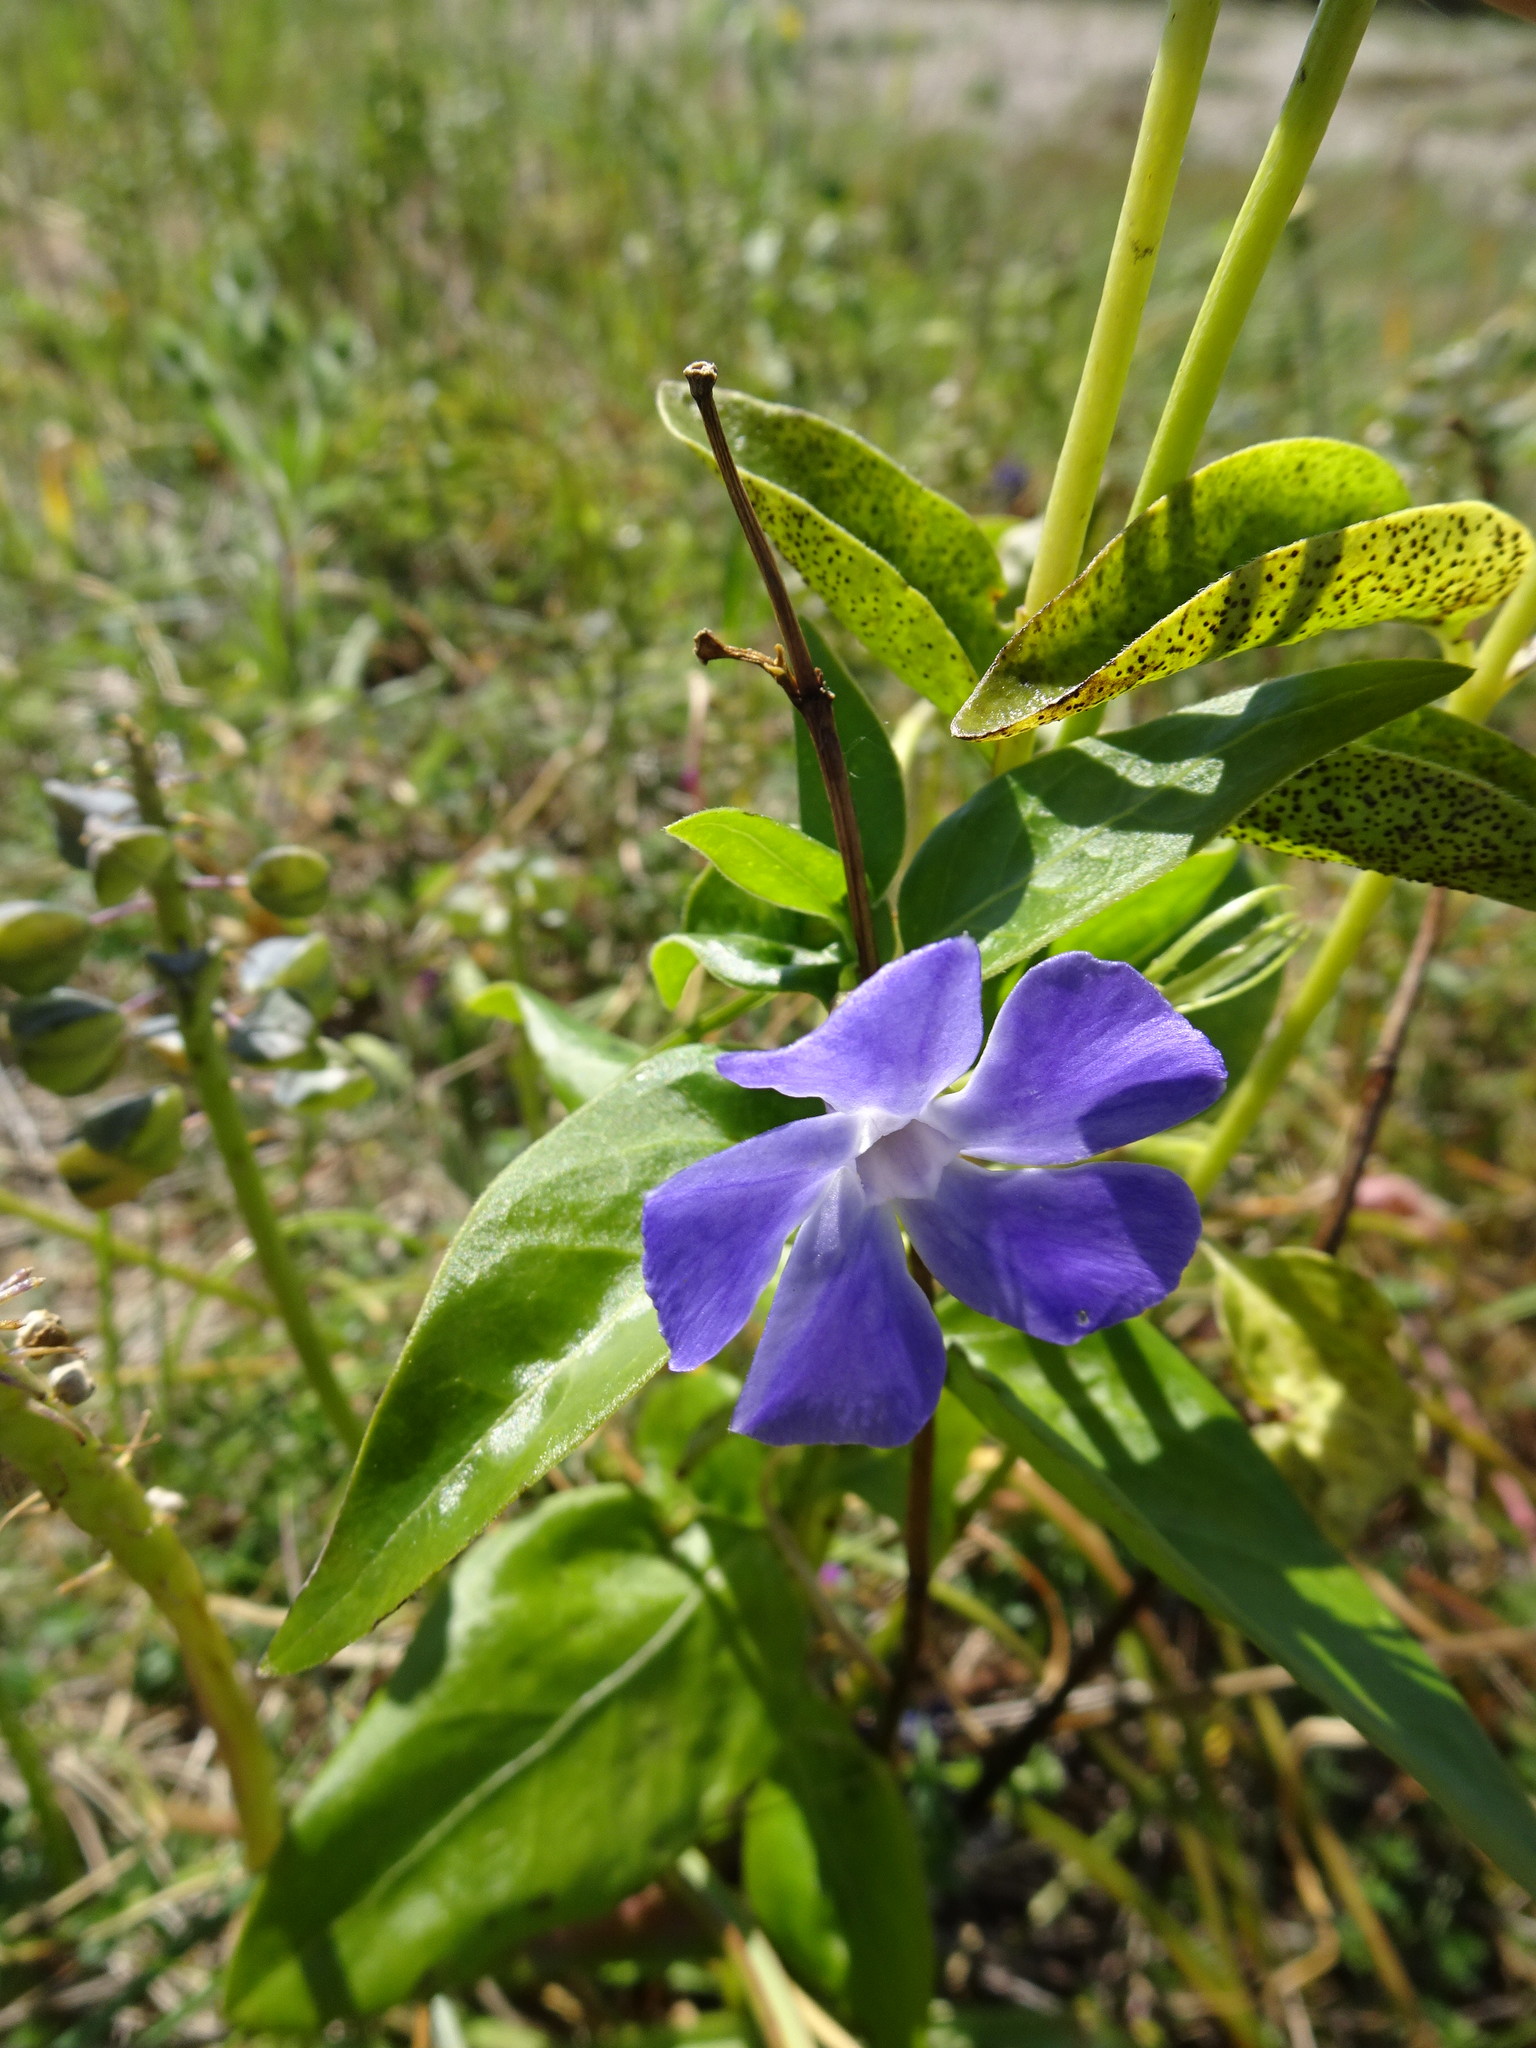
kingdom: Plantae
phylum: Tracheophyta
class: Magnoliopsida
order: Gentianales
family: Apocynaceae
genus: Vinca
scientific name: Vinca major
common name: Greater periwinkle
